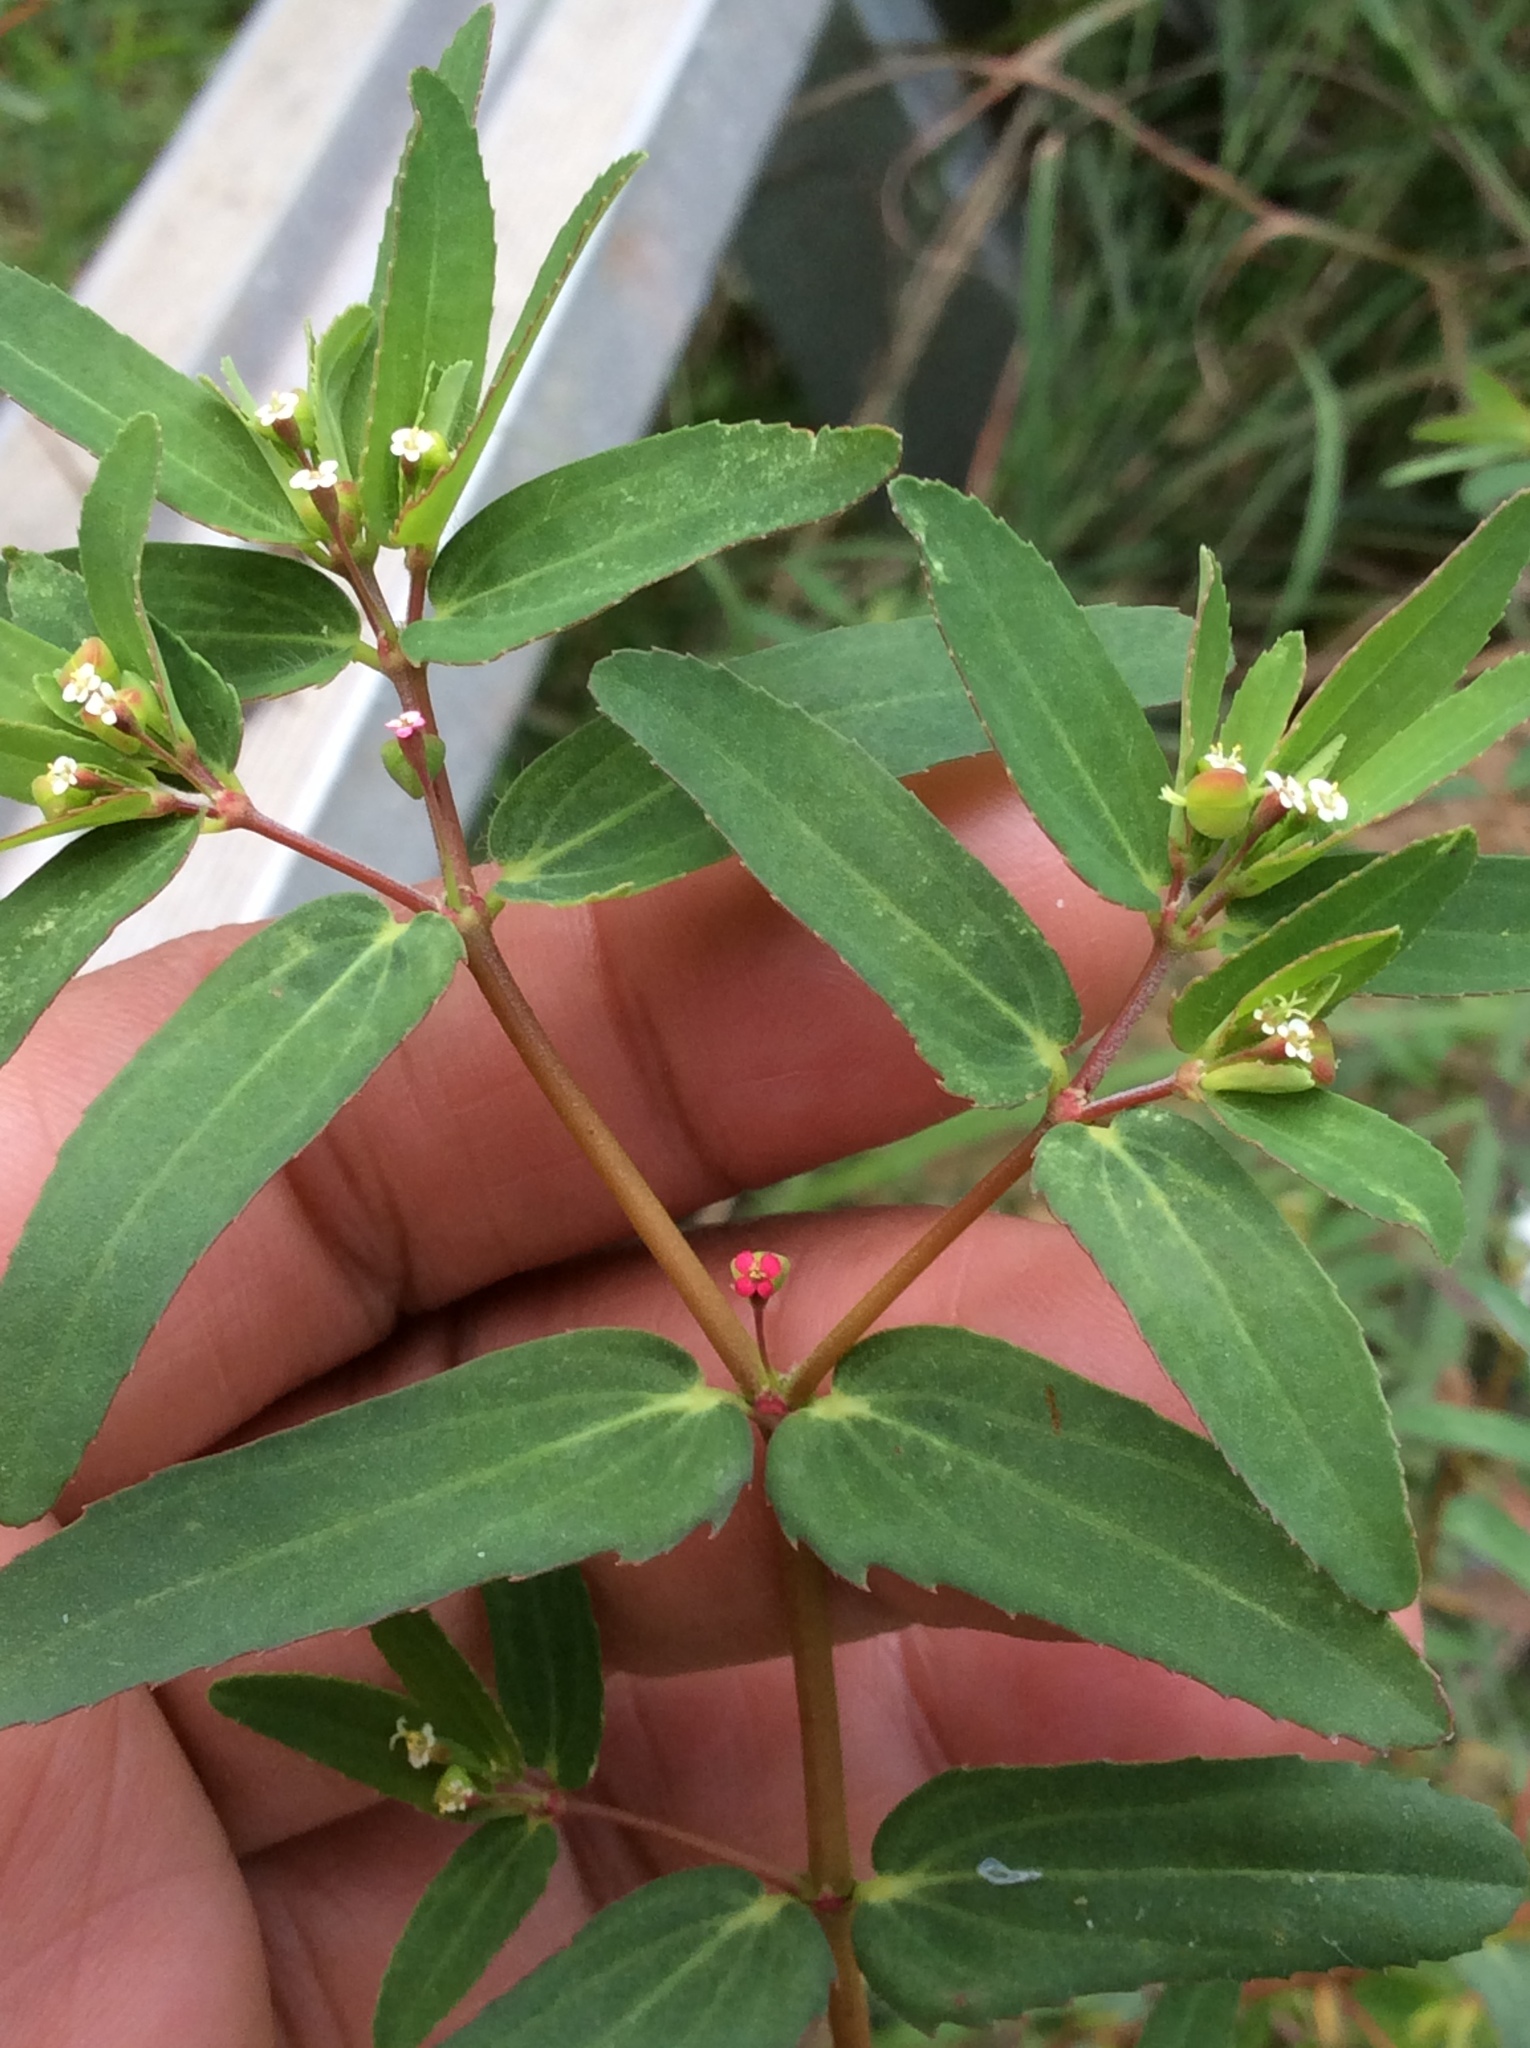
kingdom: Plantae
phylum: Tracheophyta
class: Magnoliopsida
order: Malpighiales
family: Euphorbiaceae
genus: Euphorbia
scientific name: Euphorbia nutans
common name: Eyebane
